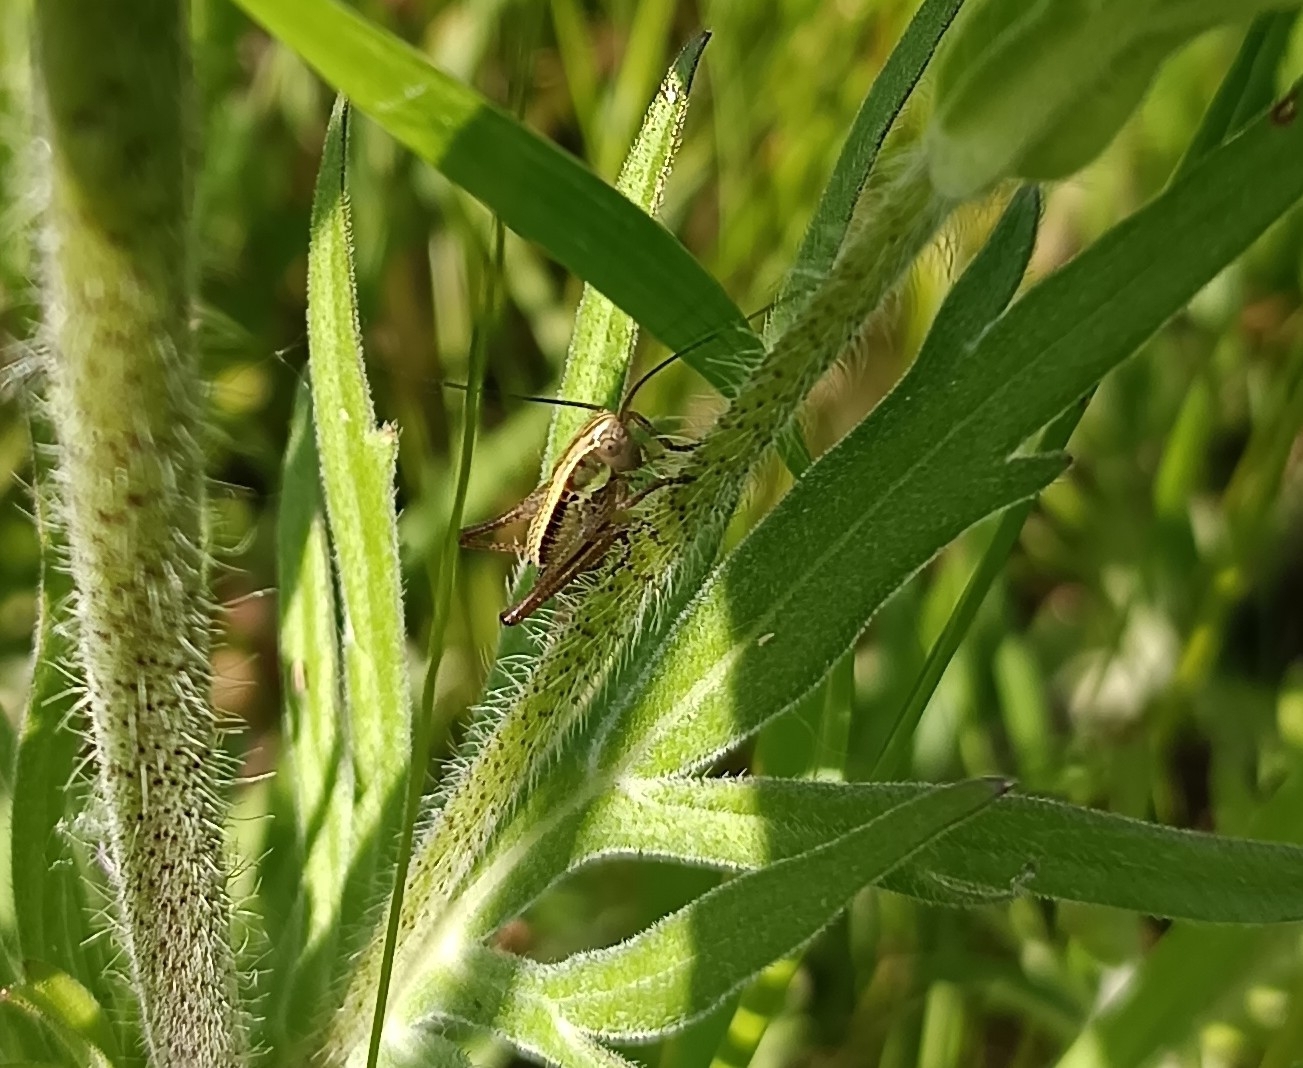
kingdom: Animalia
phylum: Arthropoda
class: Insecta
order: Orthoptera
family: Tettigoniidae
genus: Roeseliana
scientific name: Roeseliana roeselii
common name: Roesel's bush cricket
